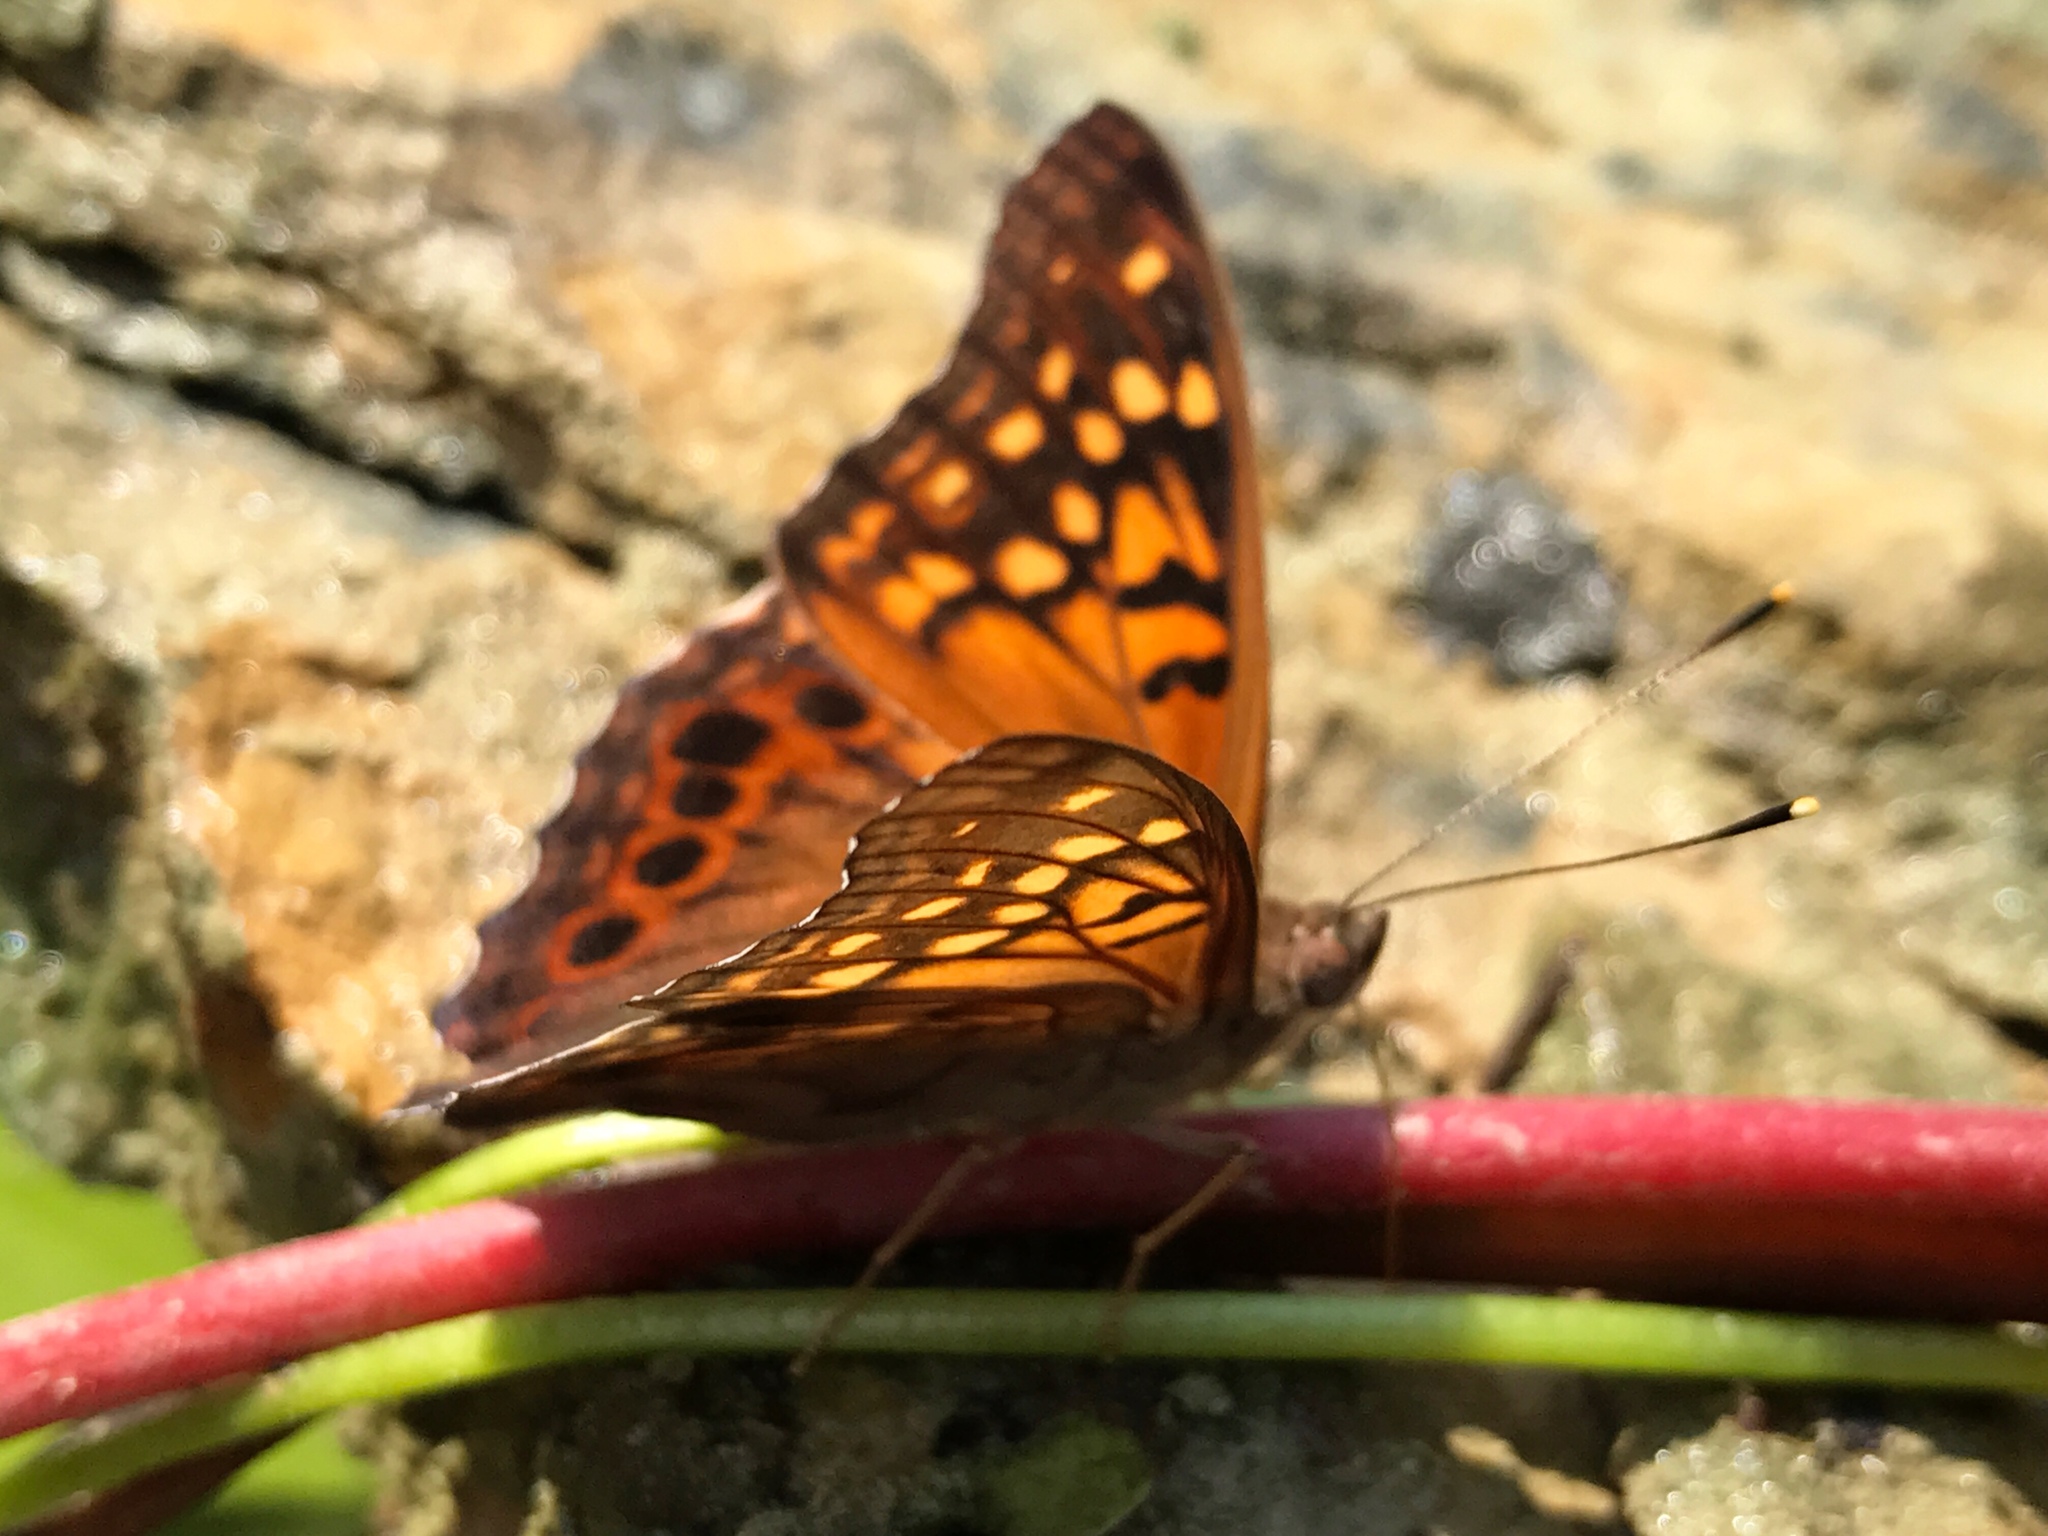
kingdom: Animalia
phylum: Arthropoda
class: Insecta
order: Lepidoptera
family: Nymphalidae
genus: Asterocampa
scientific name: Asterocampa clyton
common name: Tawny emperor
